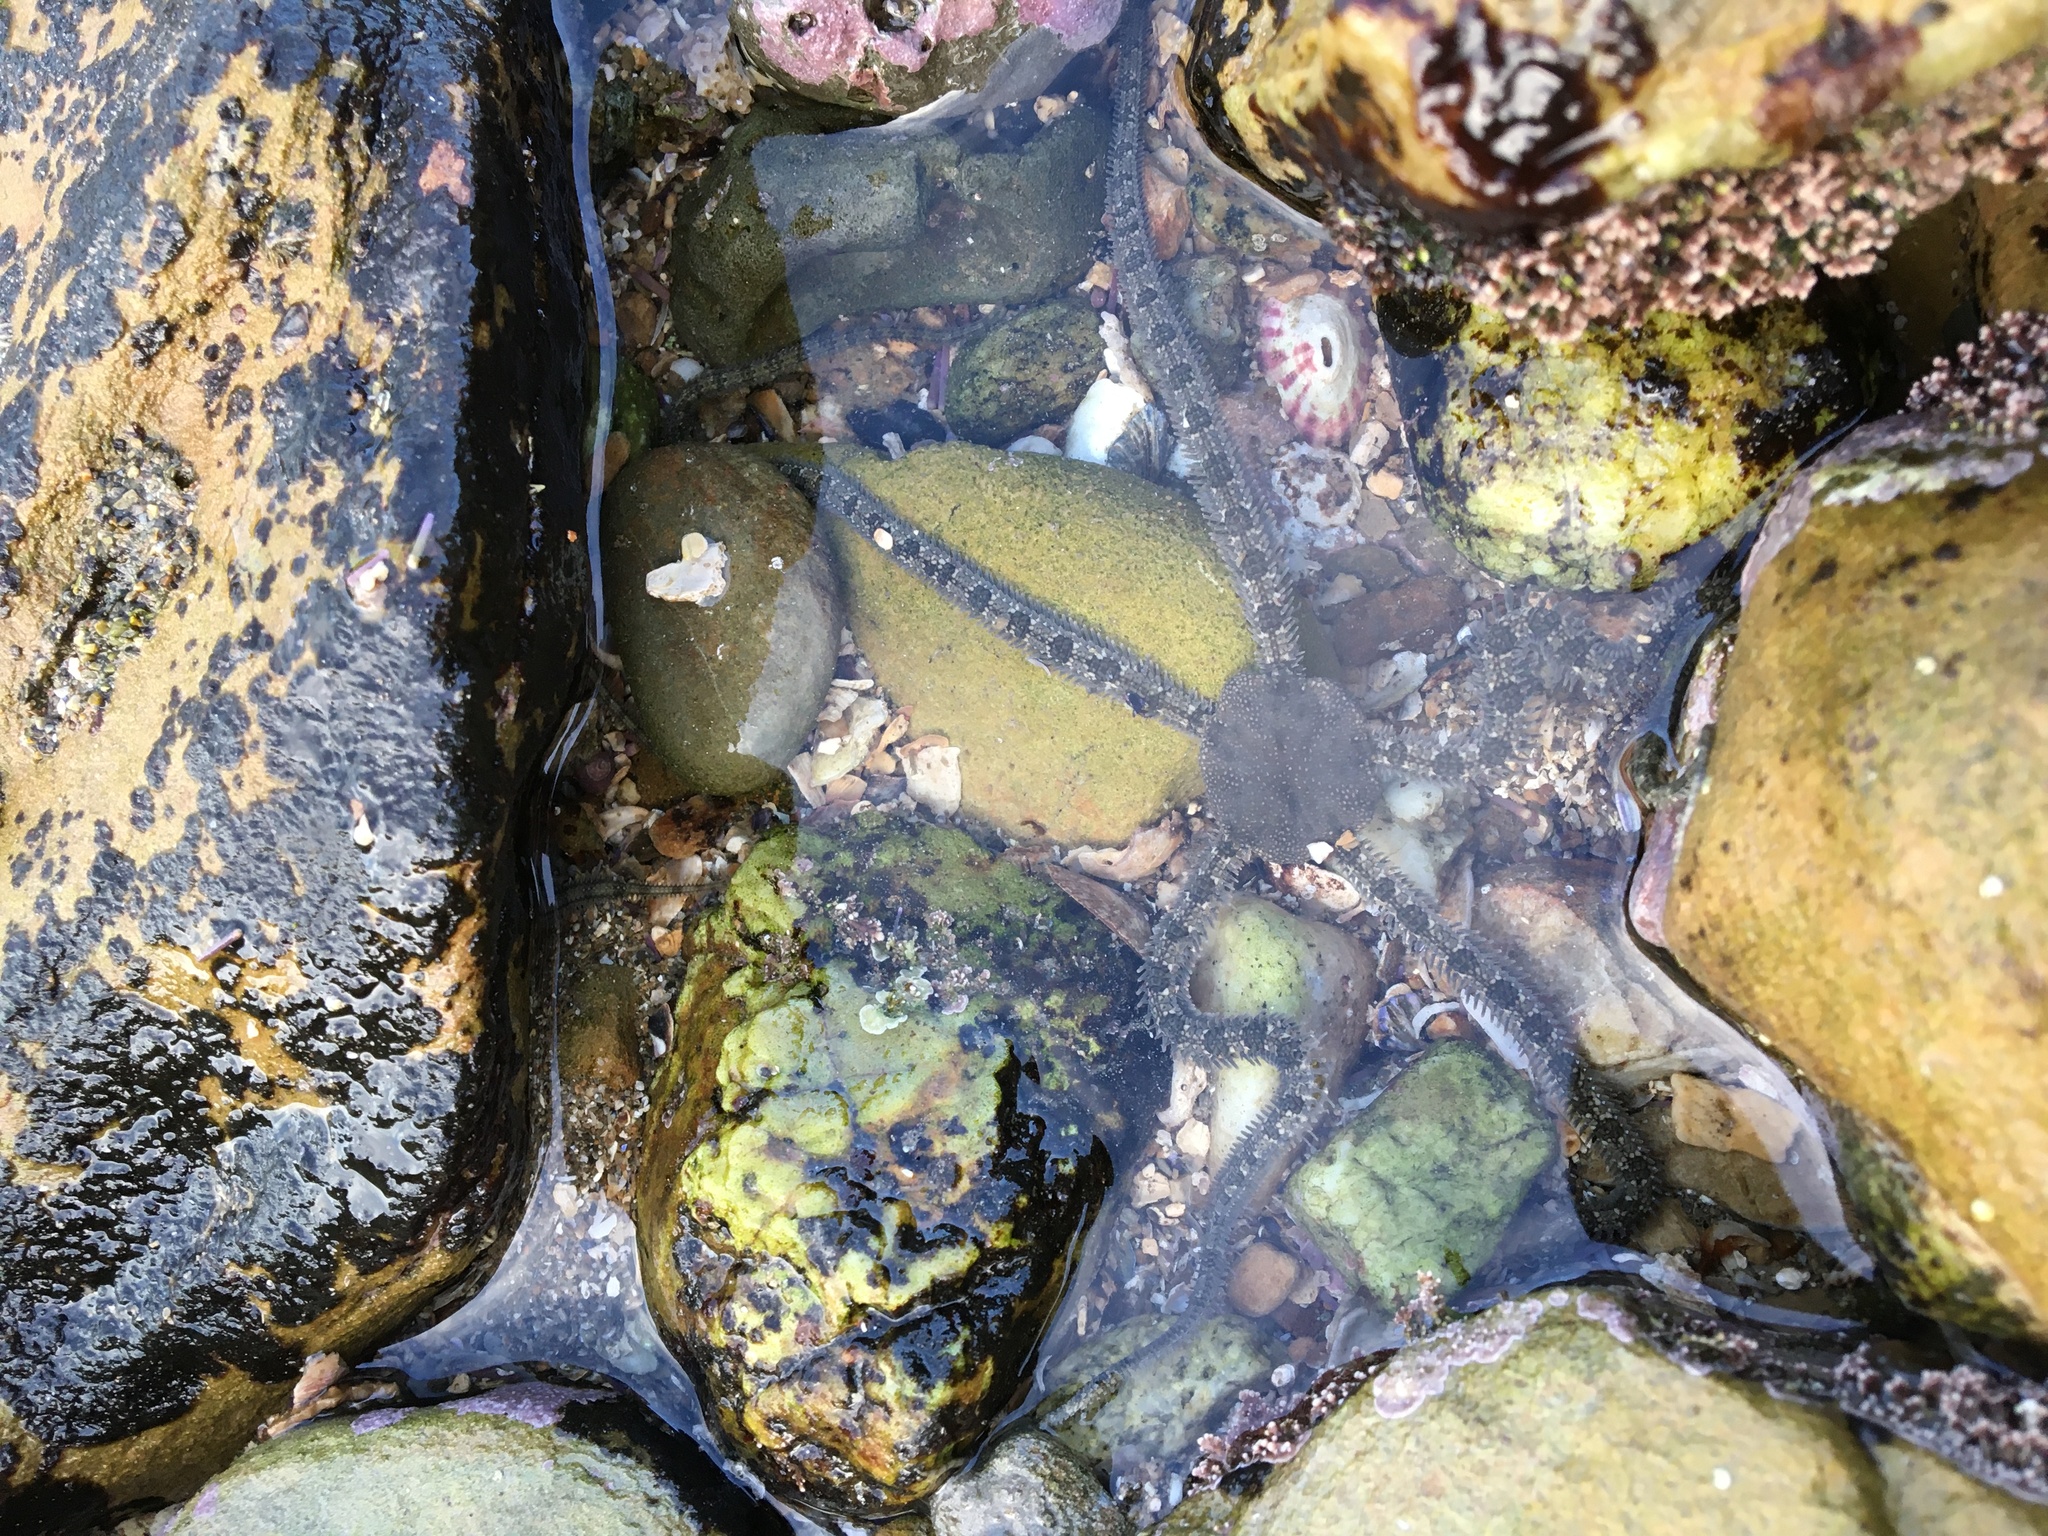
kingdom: Animalia
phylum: Echinodermata
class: Ophiuroidea
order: Amphilepidida
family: Ophionereididae
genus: Ophionereis
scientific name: Ophionereis annulata
